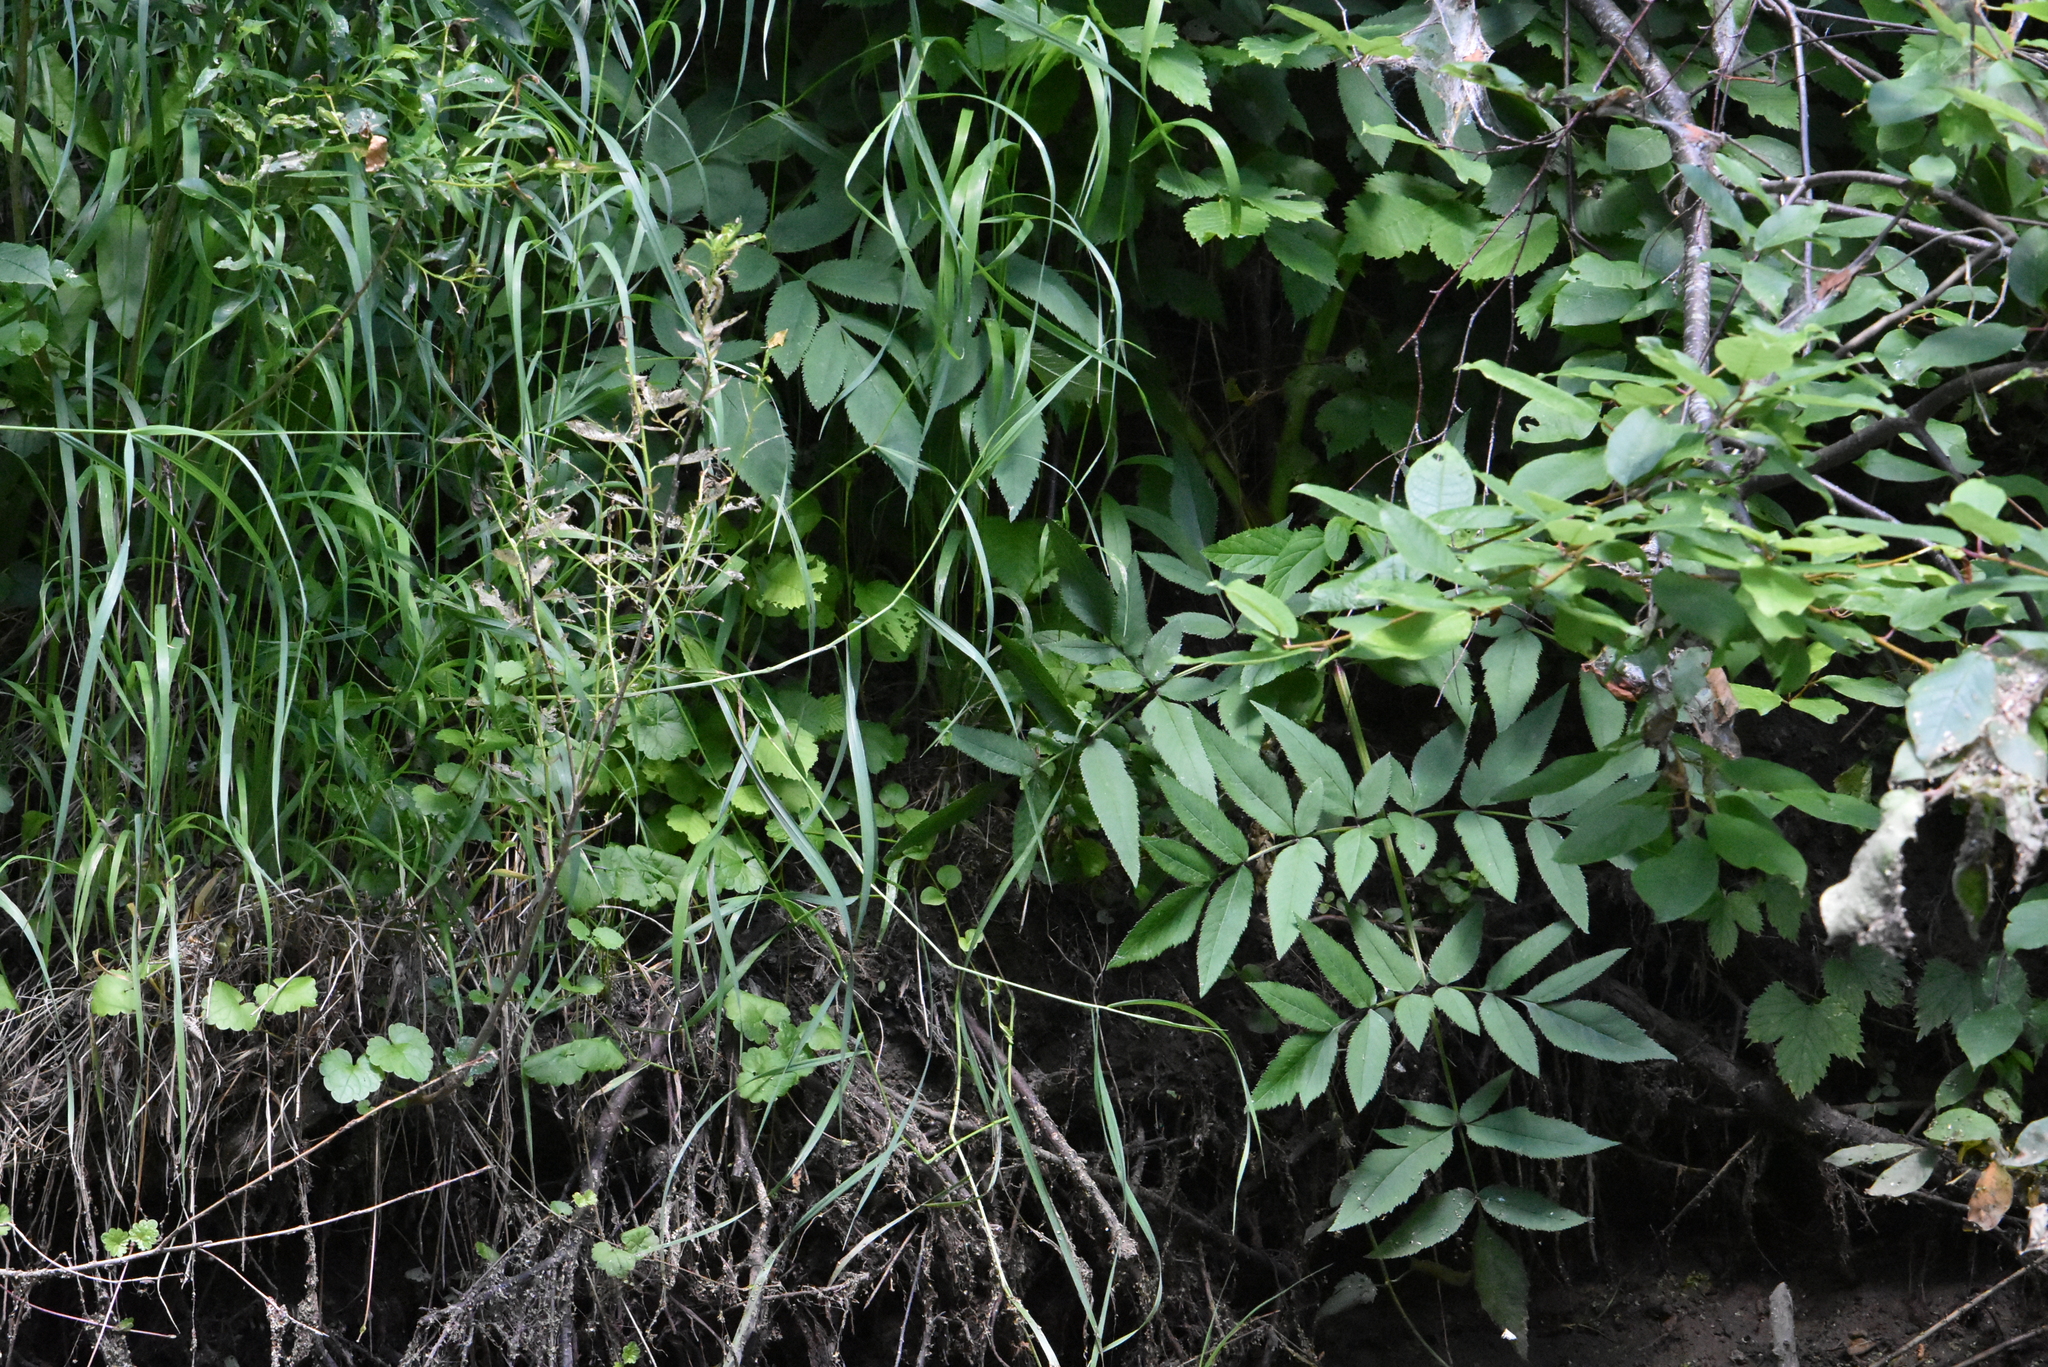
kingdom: Plantae
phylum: Tracheophyta
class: Magnoliopsida
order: Apiales
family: Apiaceae
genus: Angelica
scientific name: Angelica sylvestris
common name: Wild angelica
